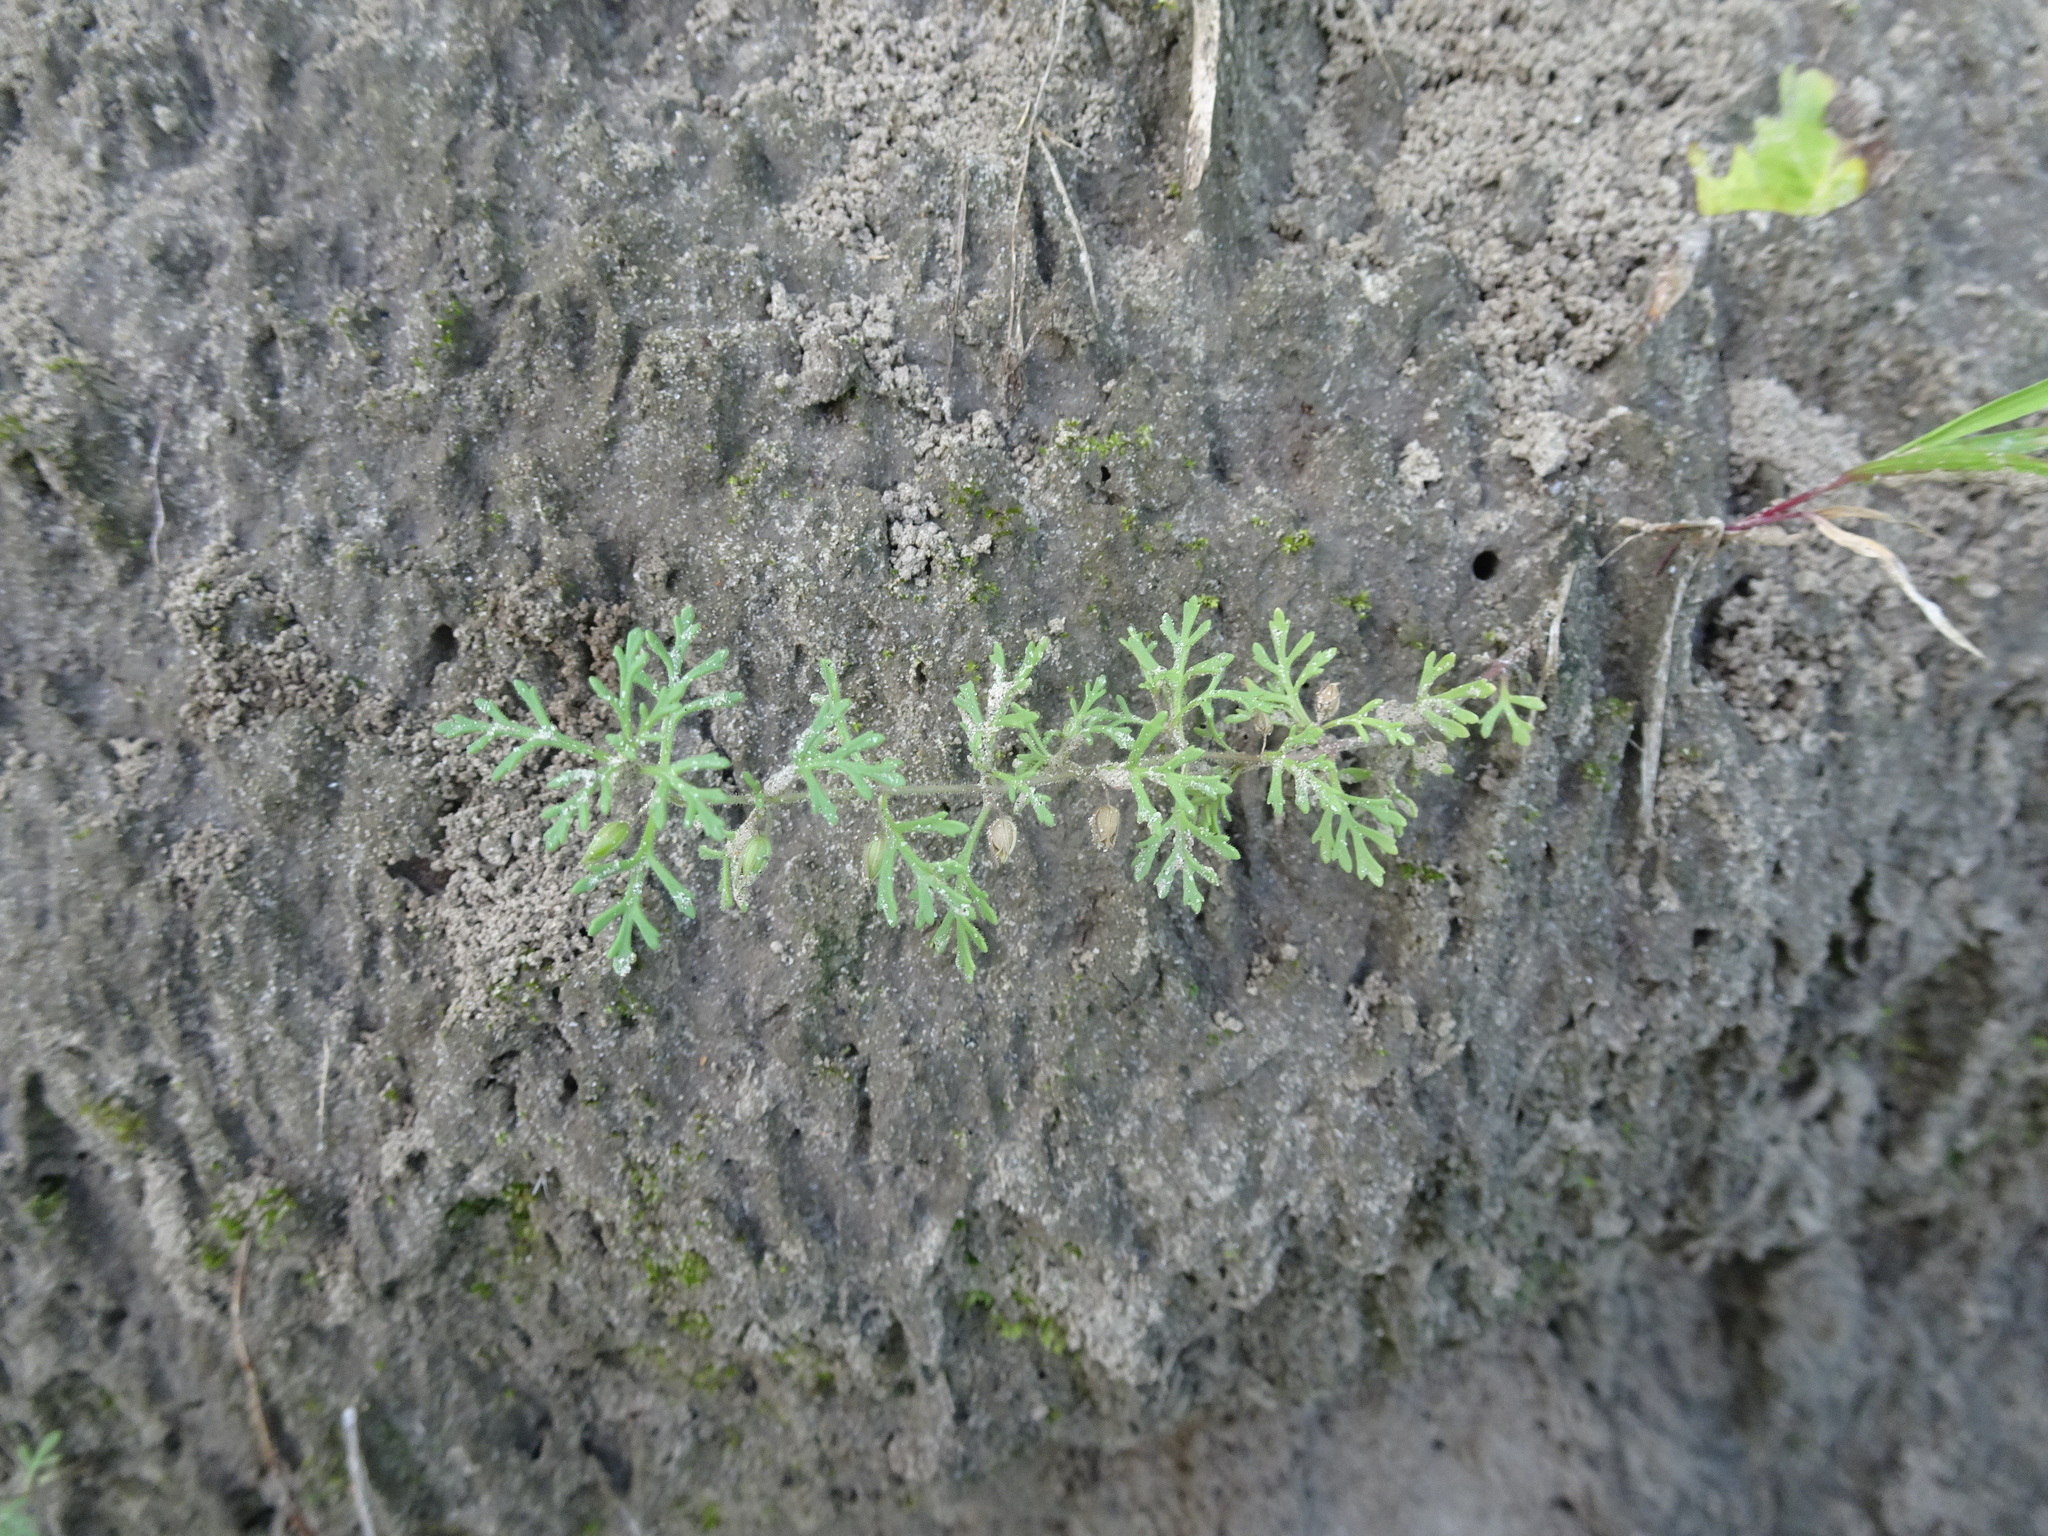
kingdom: Plantae
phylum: Tracheophyta
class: Magnoliopsida
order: Lamiales
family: Plantaginaceae
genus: Leucospora
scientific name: Leucospora multifida
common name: Narrow-leaf paleseed
